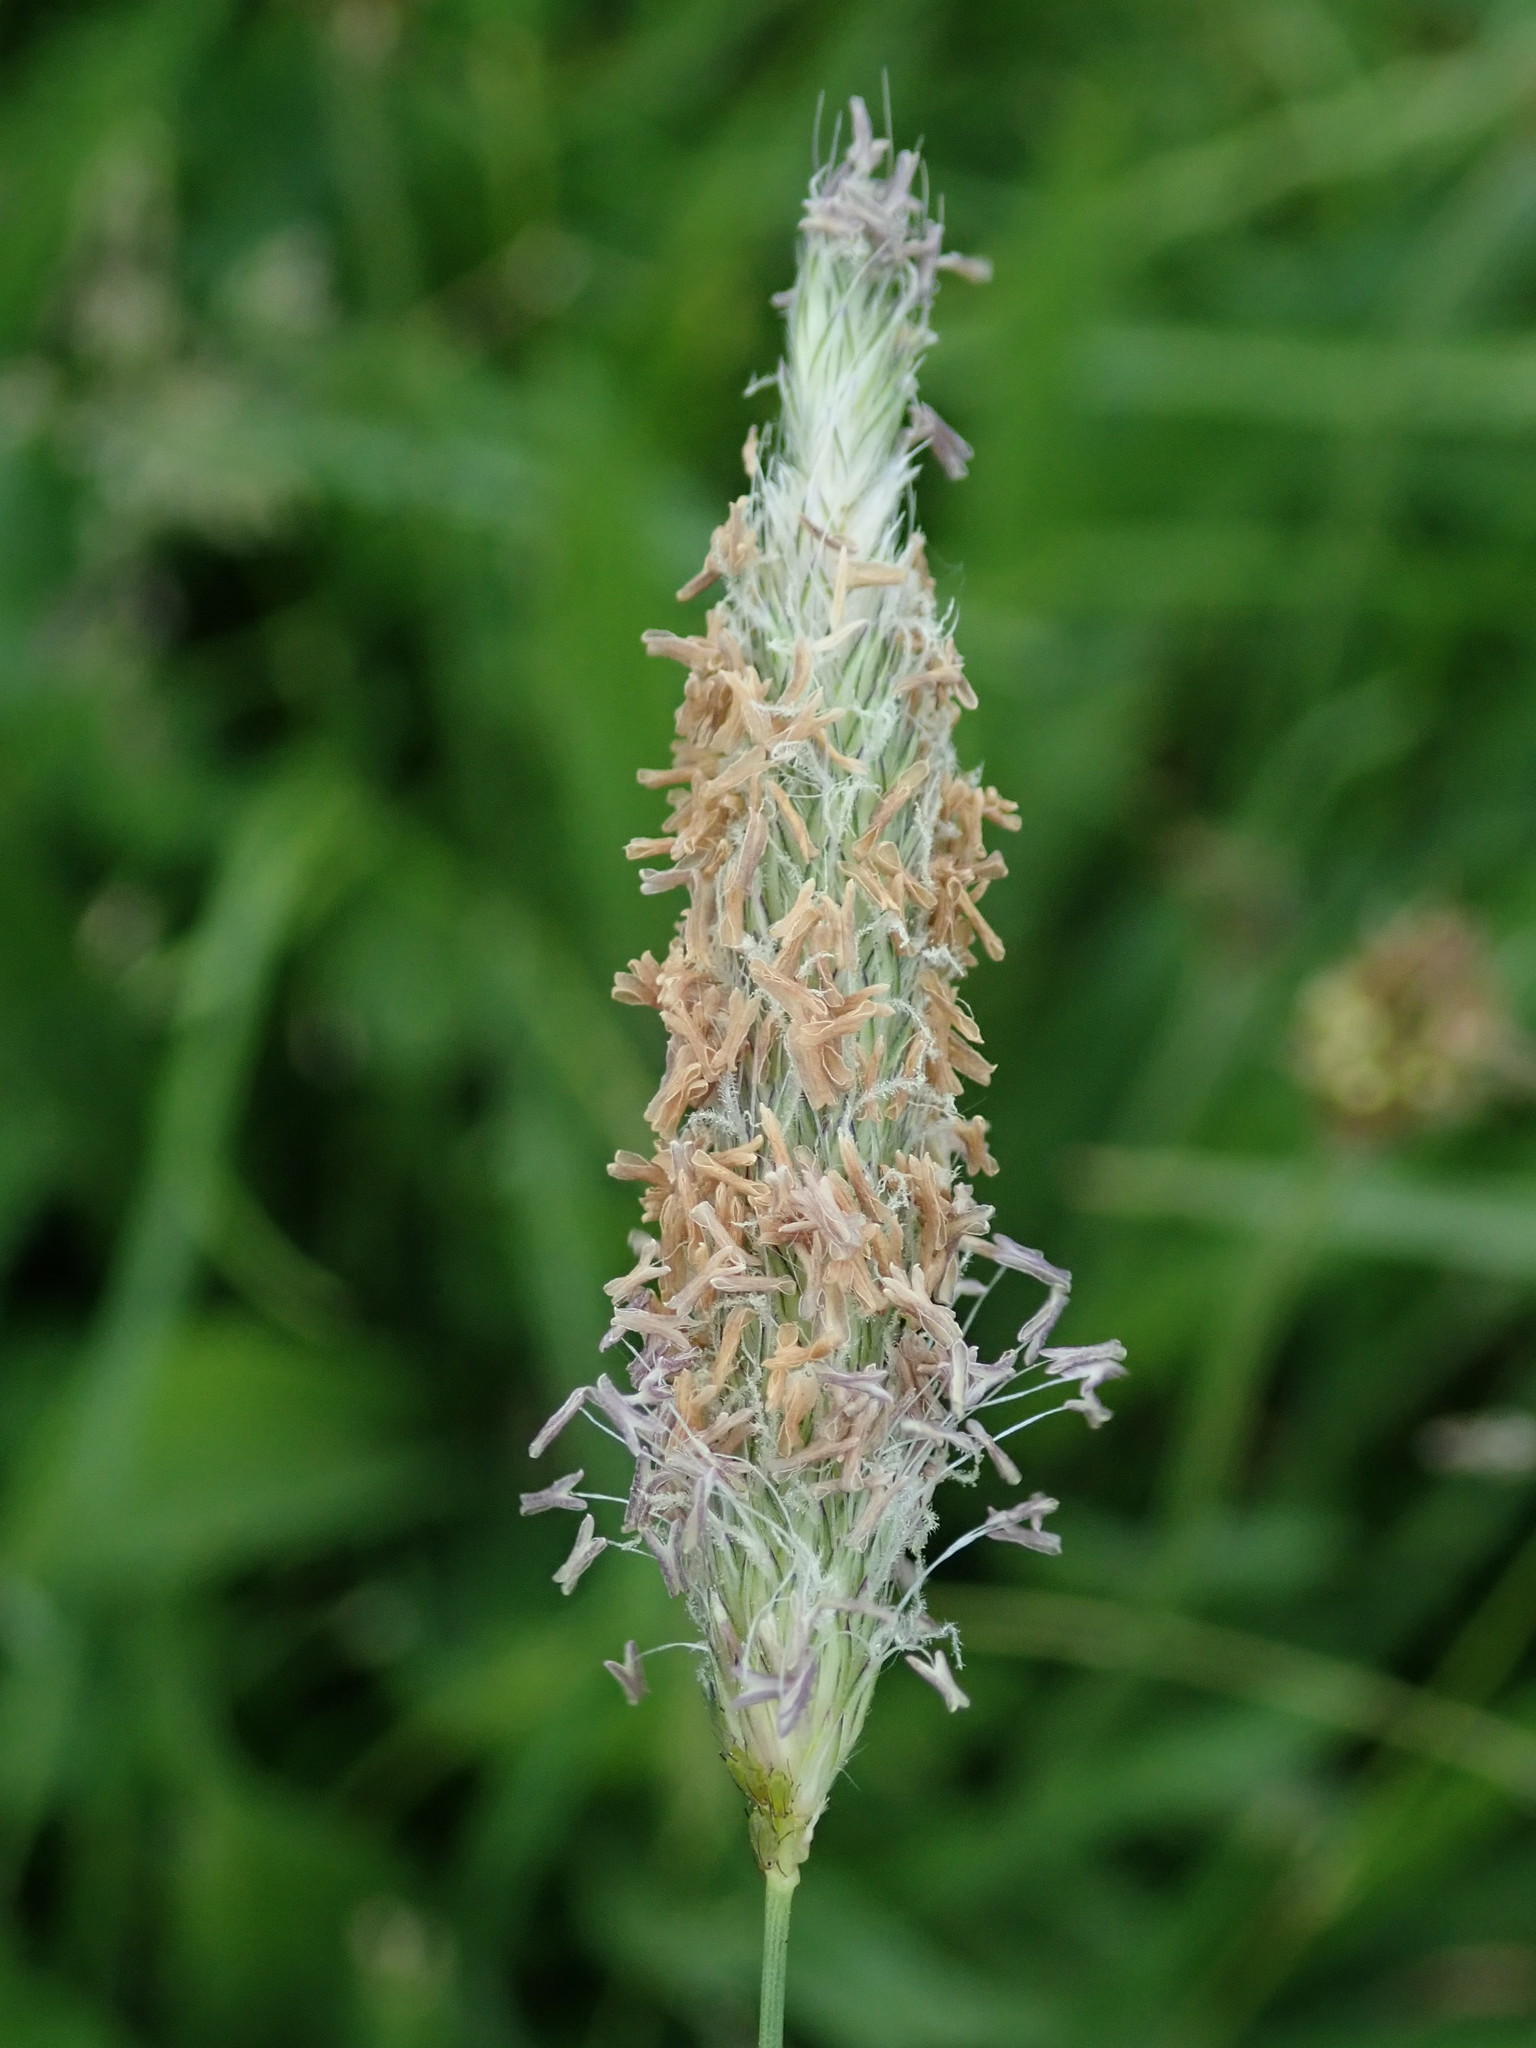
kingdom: Plantae
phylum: Tracheophyta
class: Liliopsida
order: Poales
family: Poaceae
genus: Alopecurus
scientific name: Alopecurus pratensis
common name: Meadow foxtail
